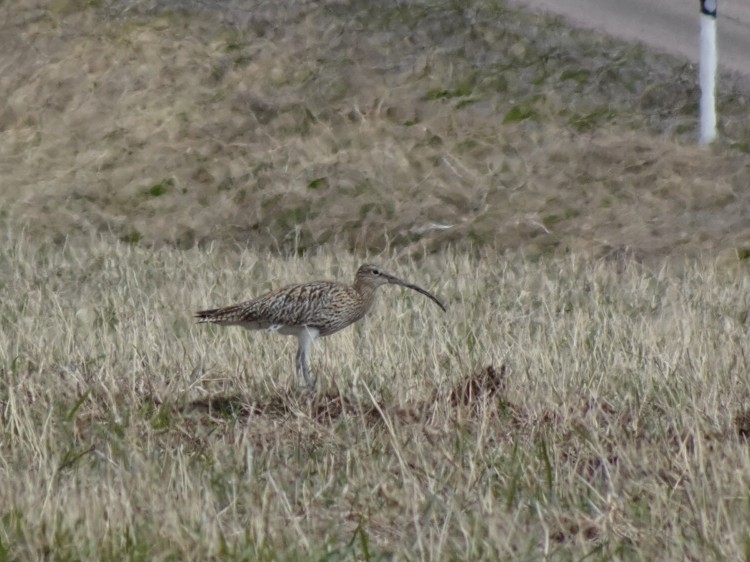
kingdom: Animalia
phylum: Chordata
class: Aves
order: Charadriiformes
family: Scolopacidae
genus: Numenius
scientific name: Numenius arquata
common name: Eurasian curlew
